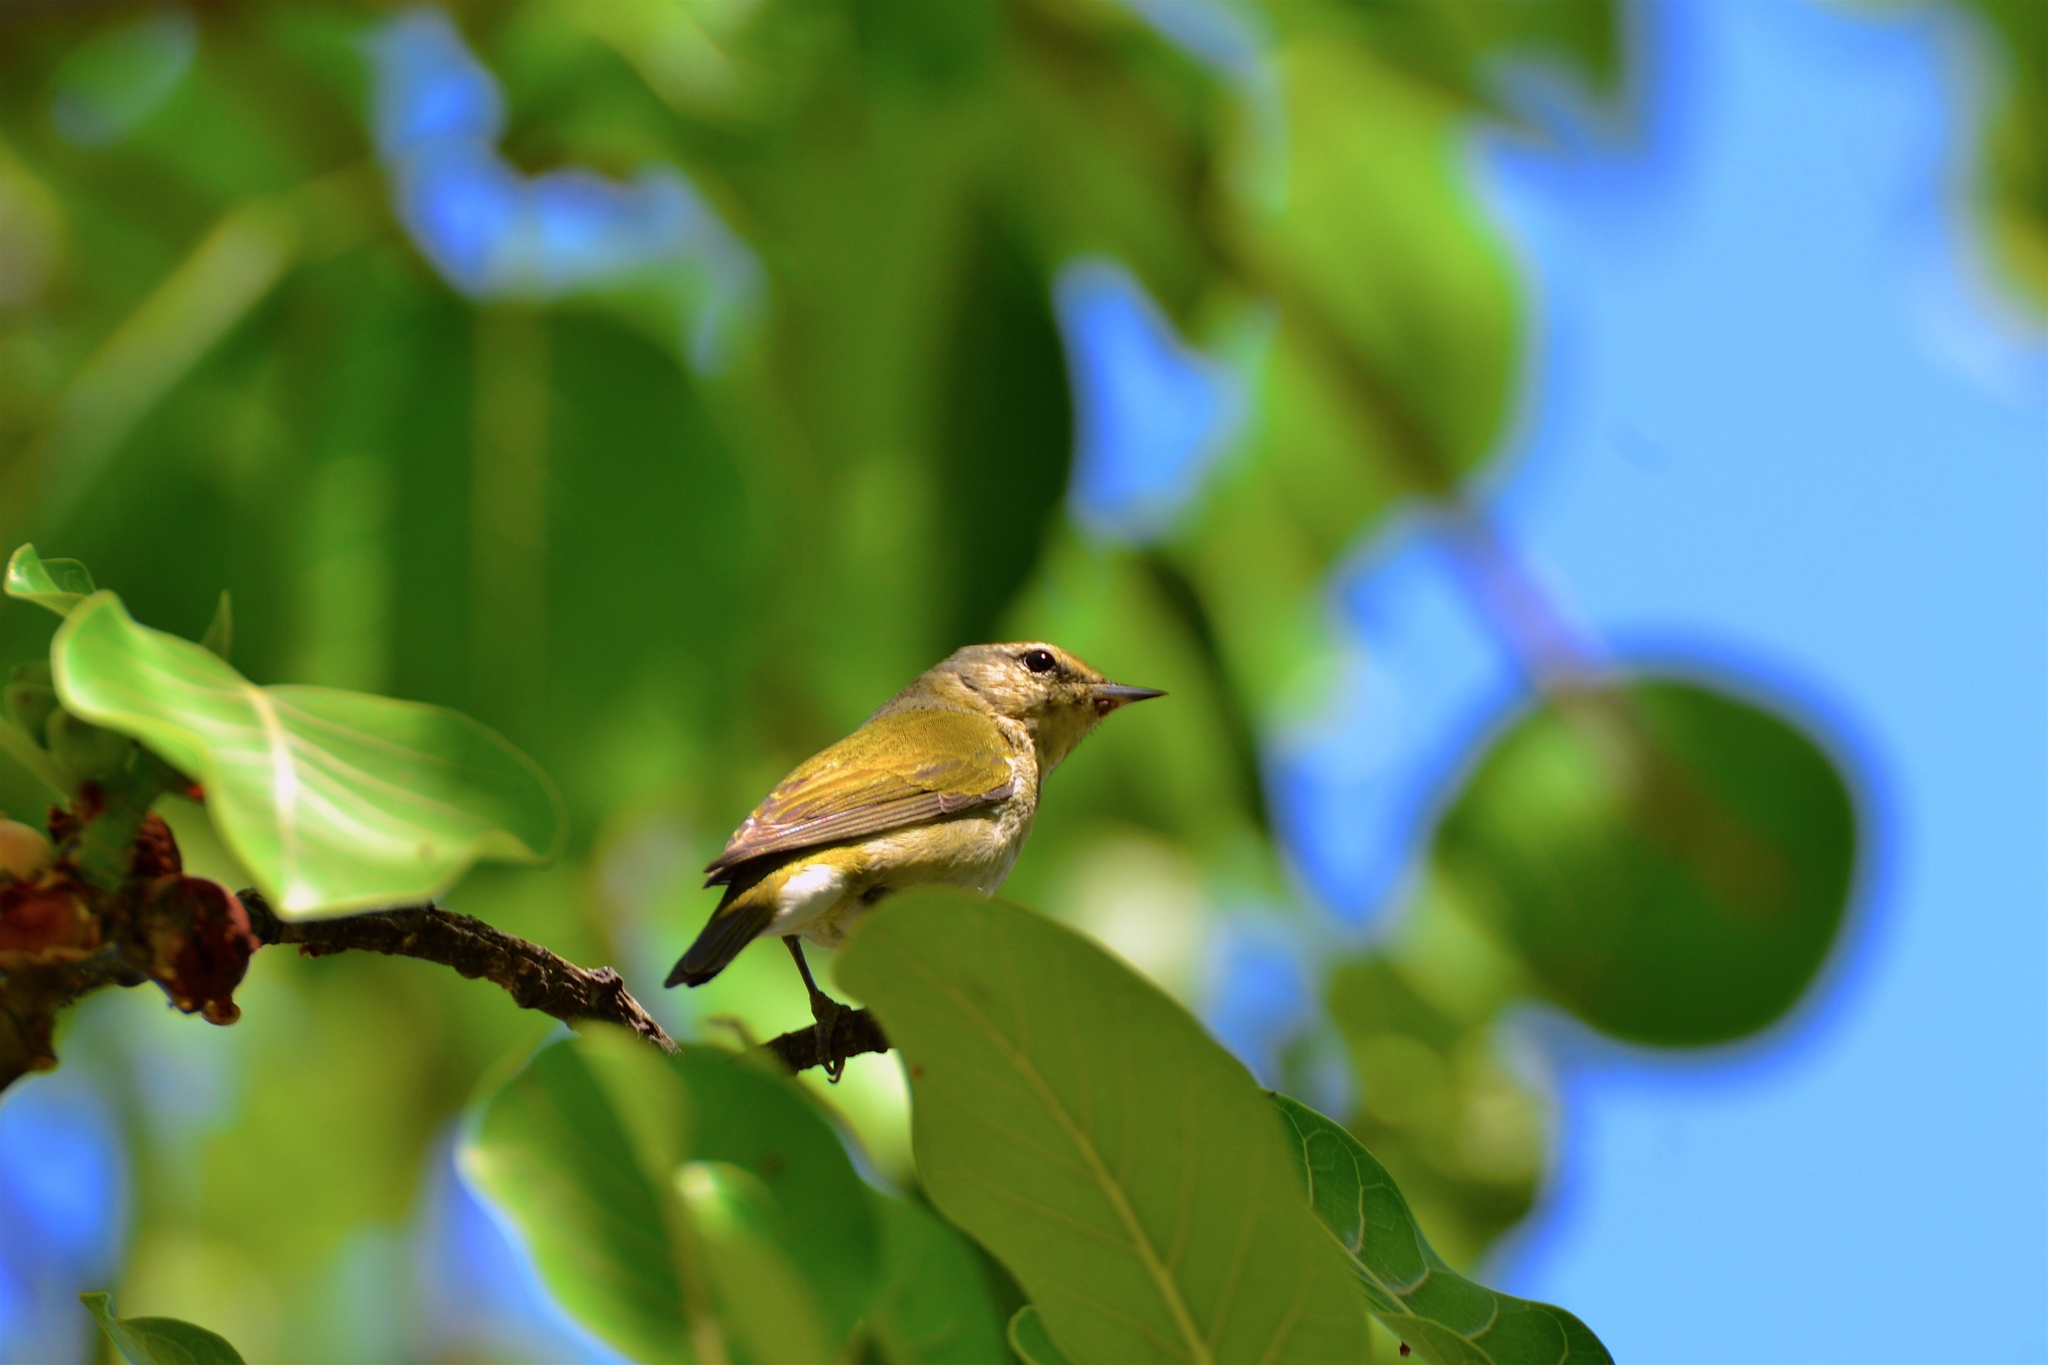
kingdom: Animalia
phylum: Chordata
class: Aves
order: Passeriformes
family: Parulidae
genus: Leiothlypis
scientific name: Leiothlypis peregrina
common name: Tennessee warbler
